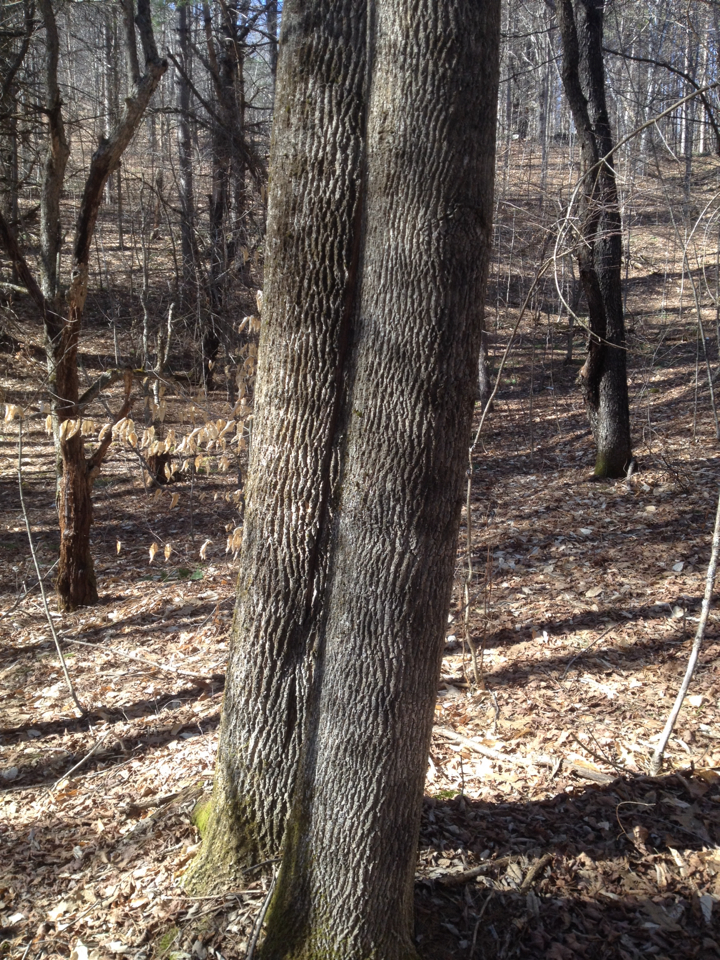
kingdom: Plantae
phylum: Tracheophyta
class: Magnoliopsida
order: Lamiales
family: Oleaceae
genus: Fraxinus
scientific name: Fraxinus americana
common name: White ash
